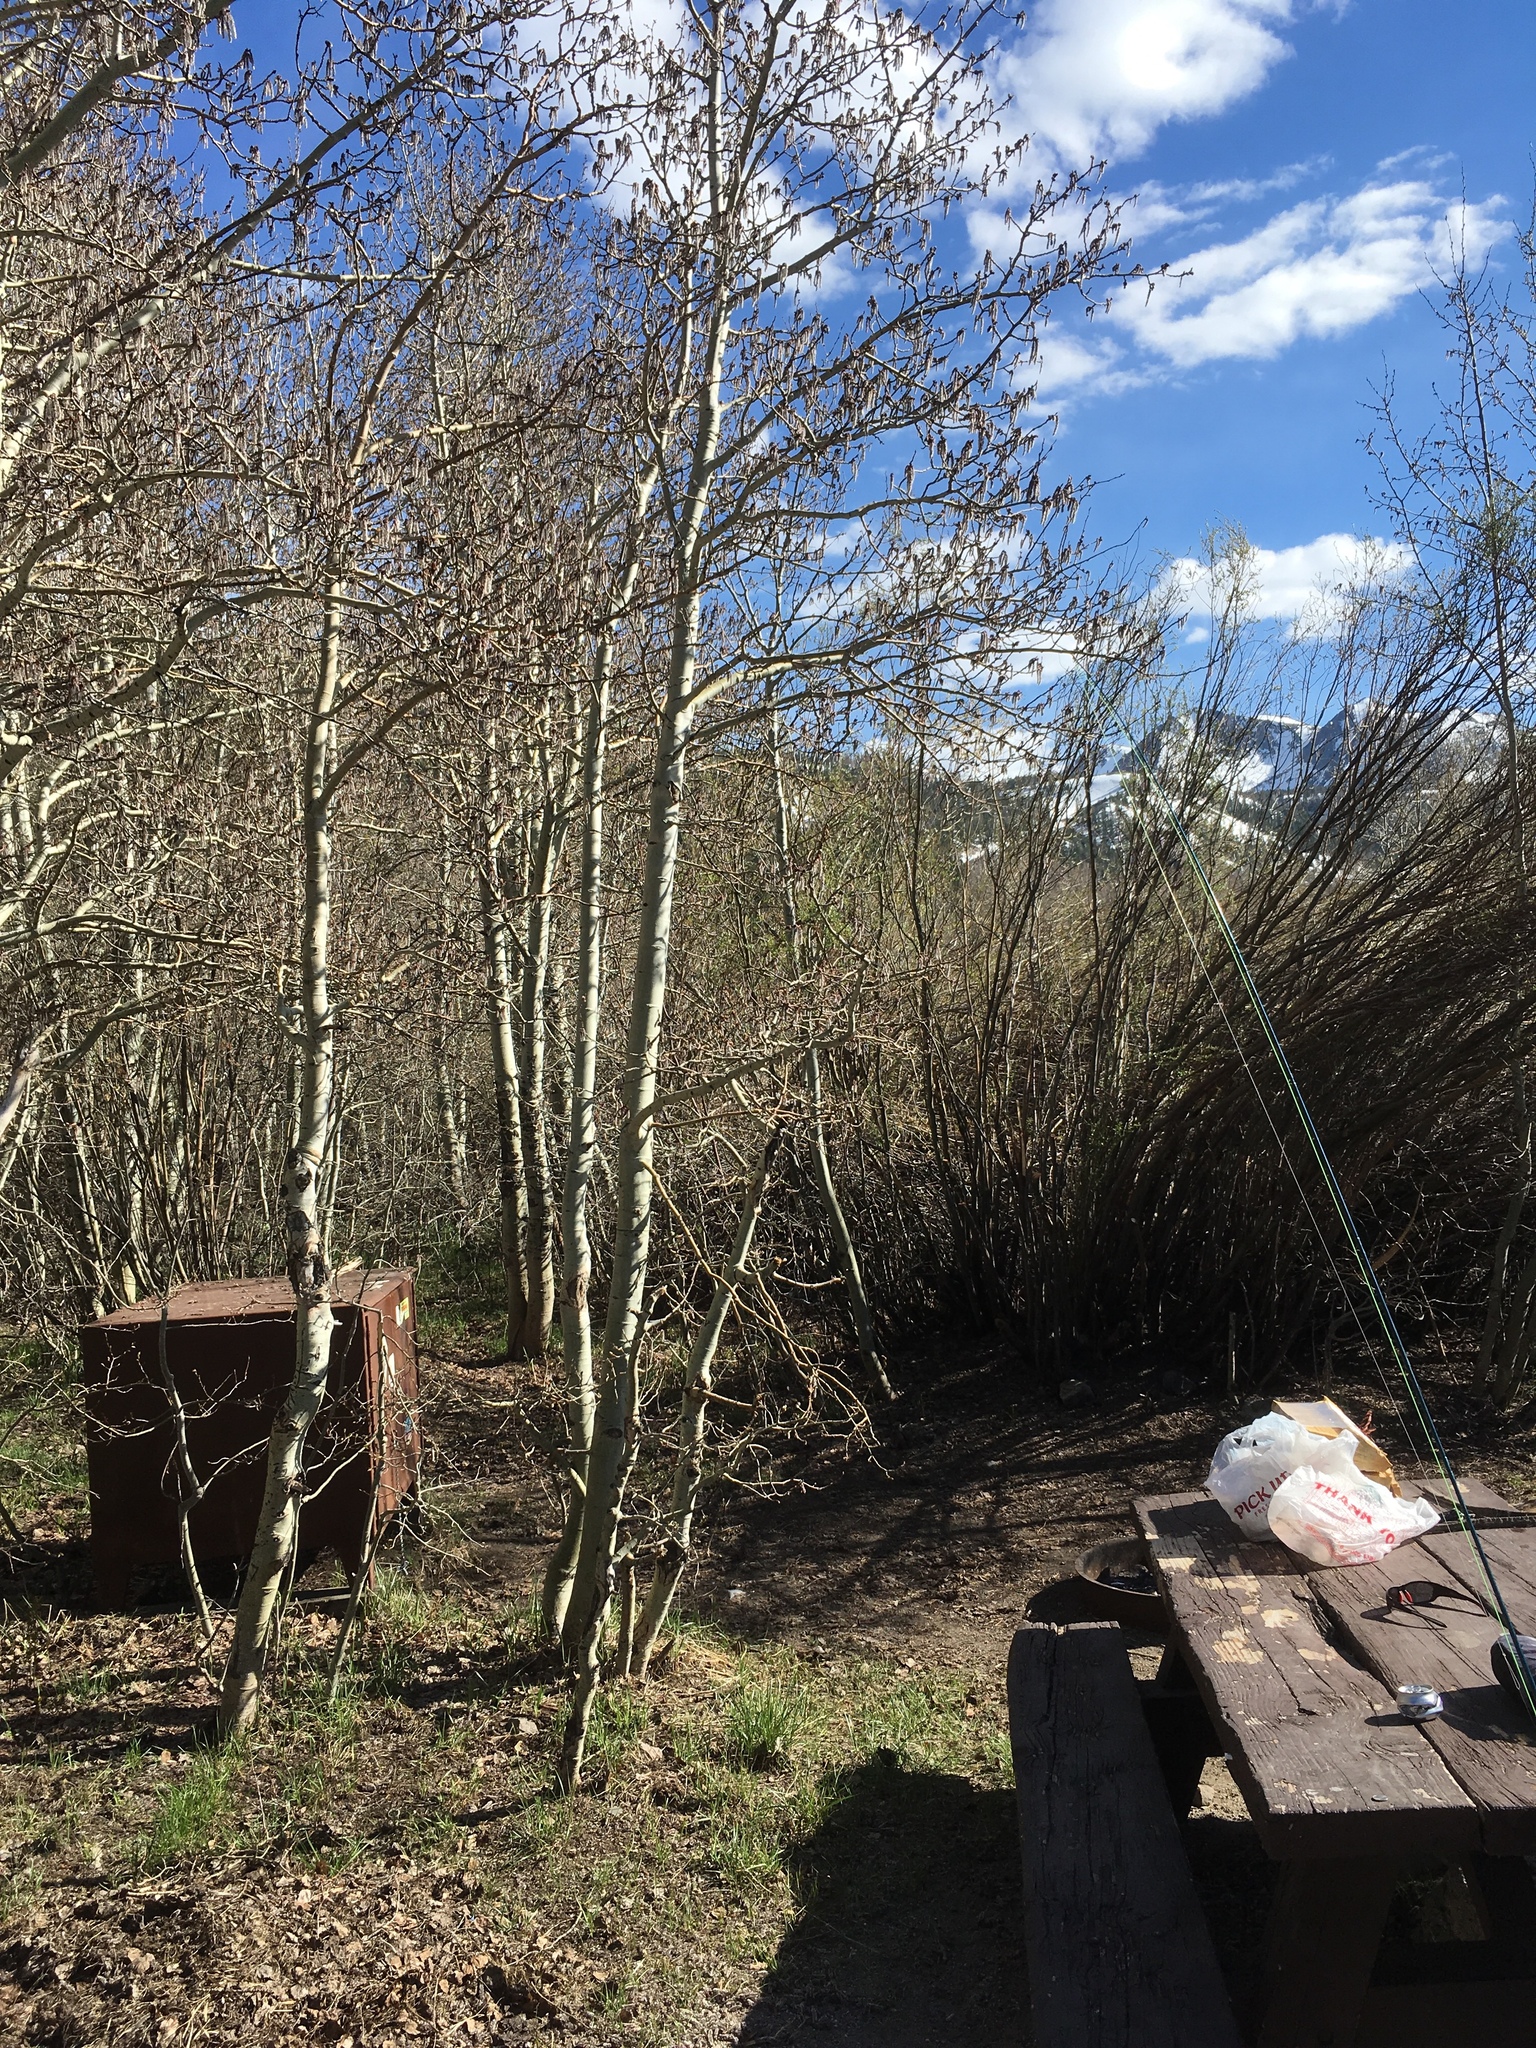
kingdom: Plantae
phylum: Tracheophyta
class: Magnoliopsida
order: Malpighiales
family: Salicaceae
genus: Populus
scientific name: Populus tremuloides
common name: Quaking aspen
